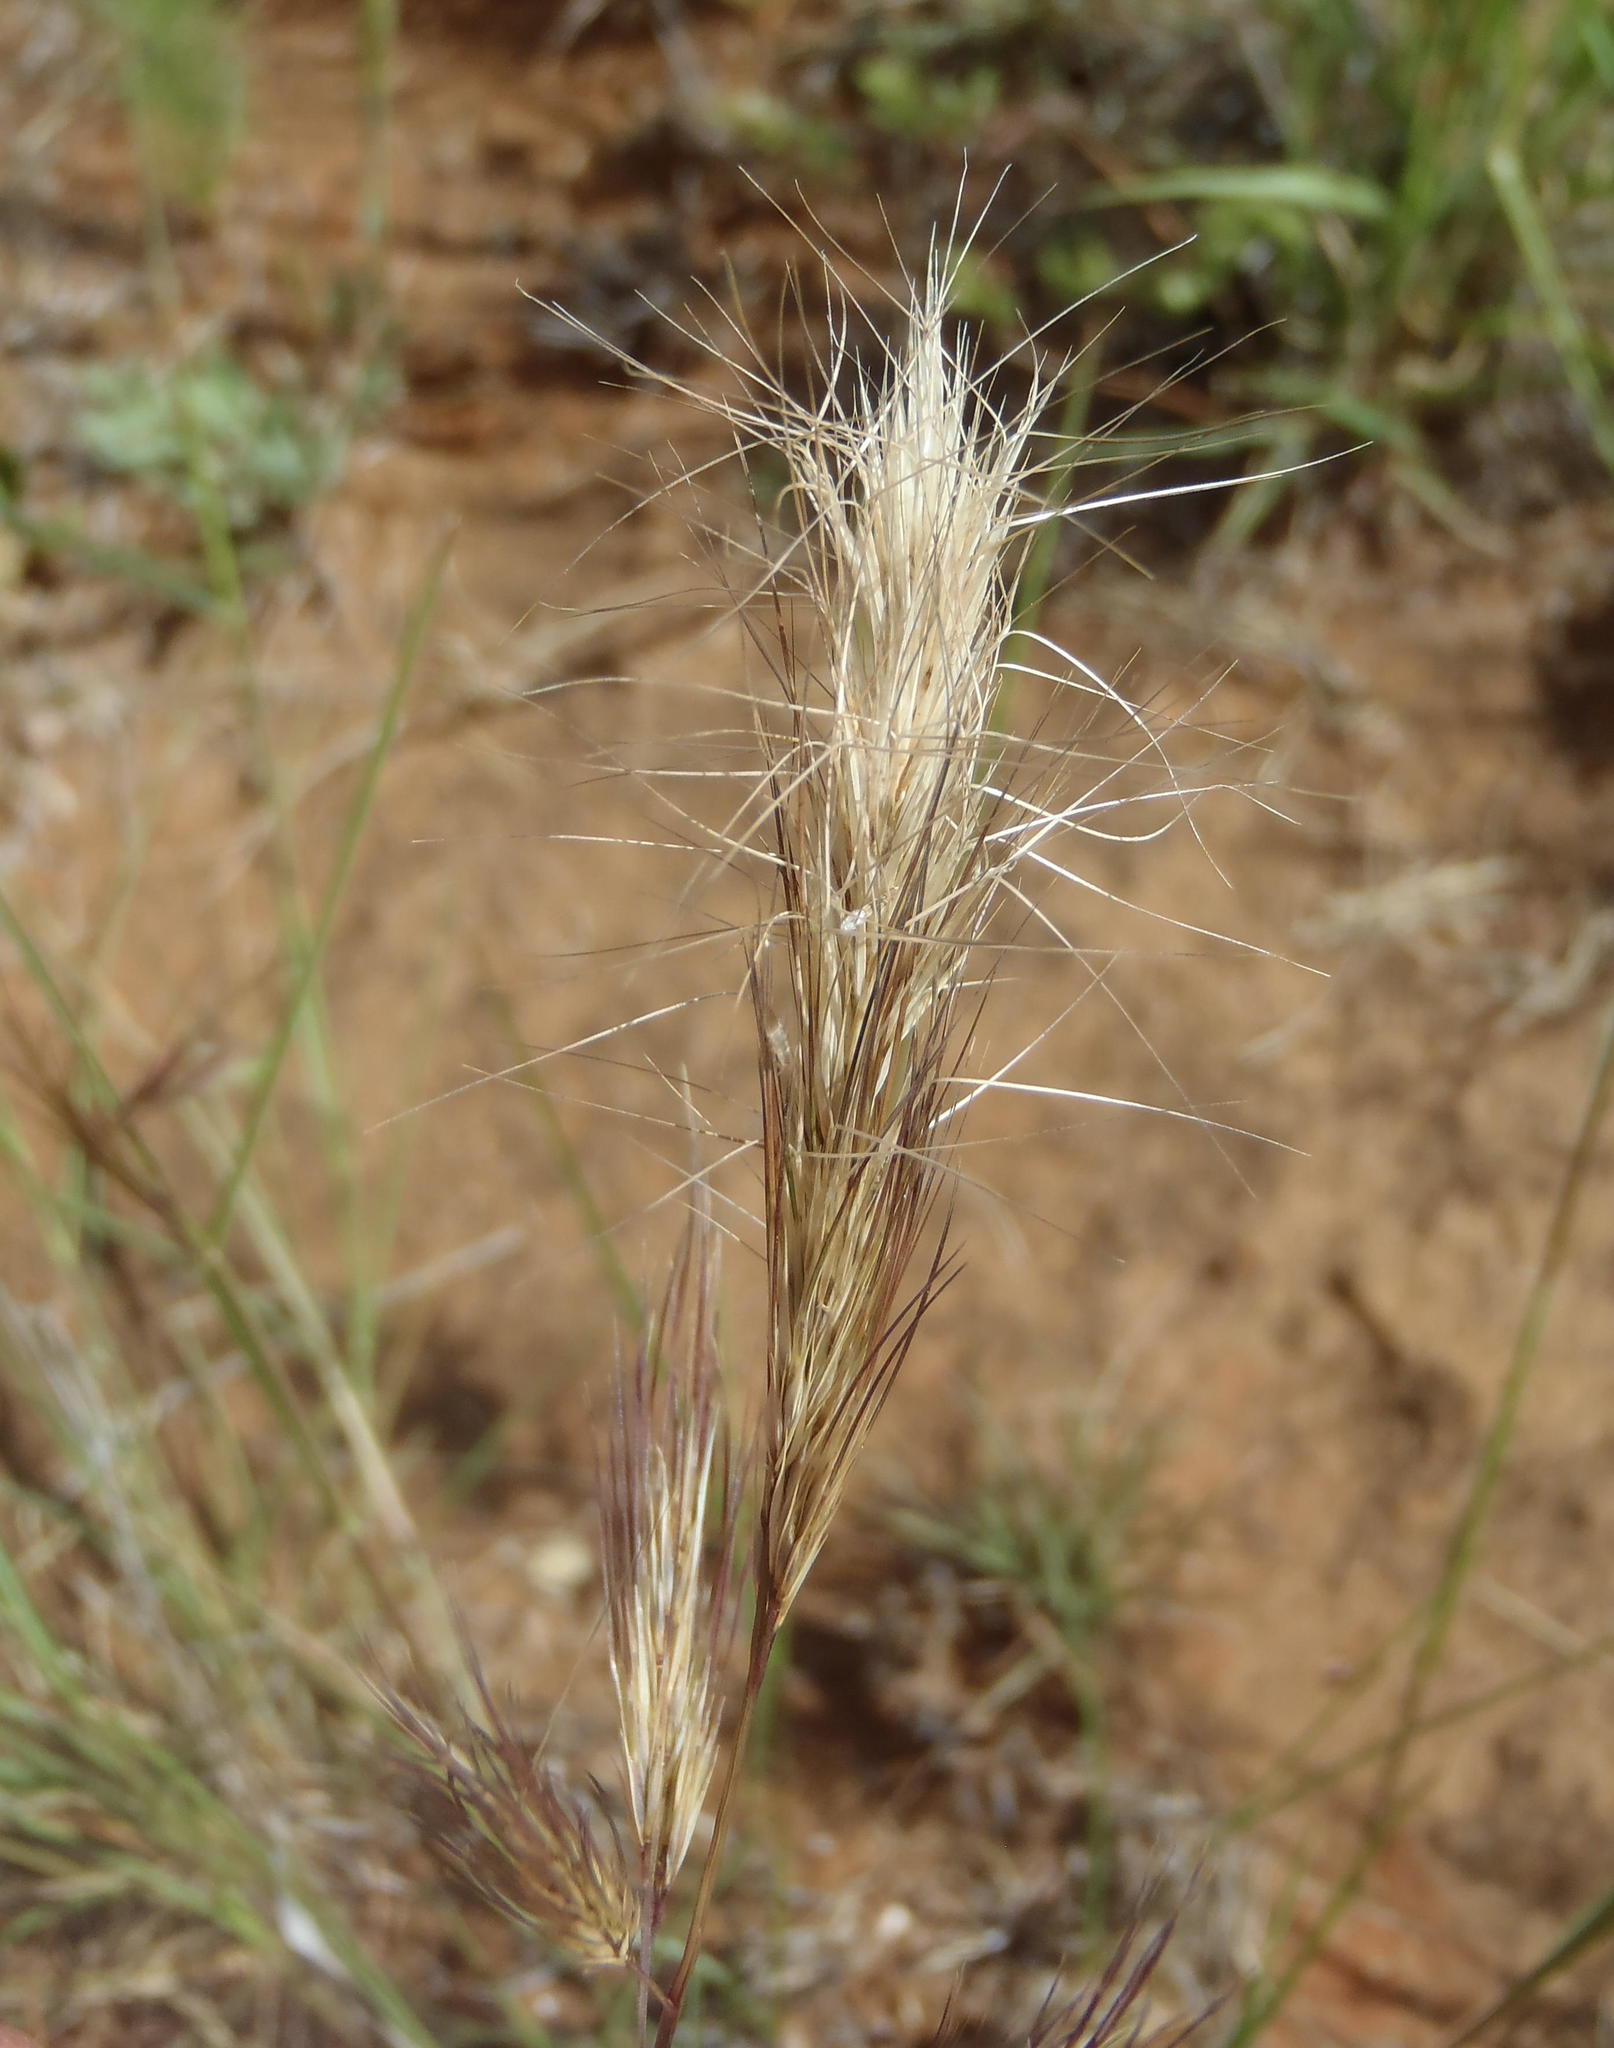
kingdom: Plantae
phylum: Tracheophyta
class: Liliopsida
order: Poales
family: Poaceae
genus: Aristida
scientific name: Aristida congesta
